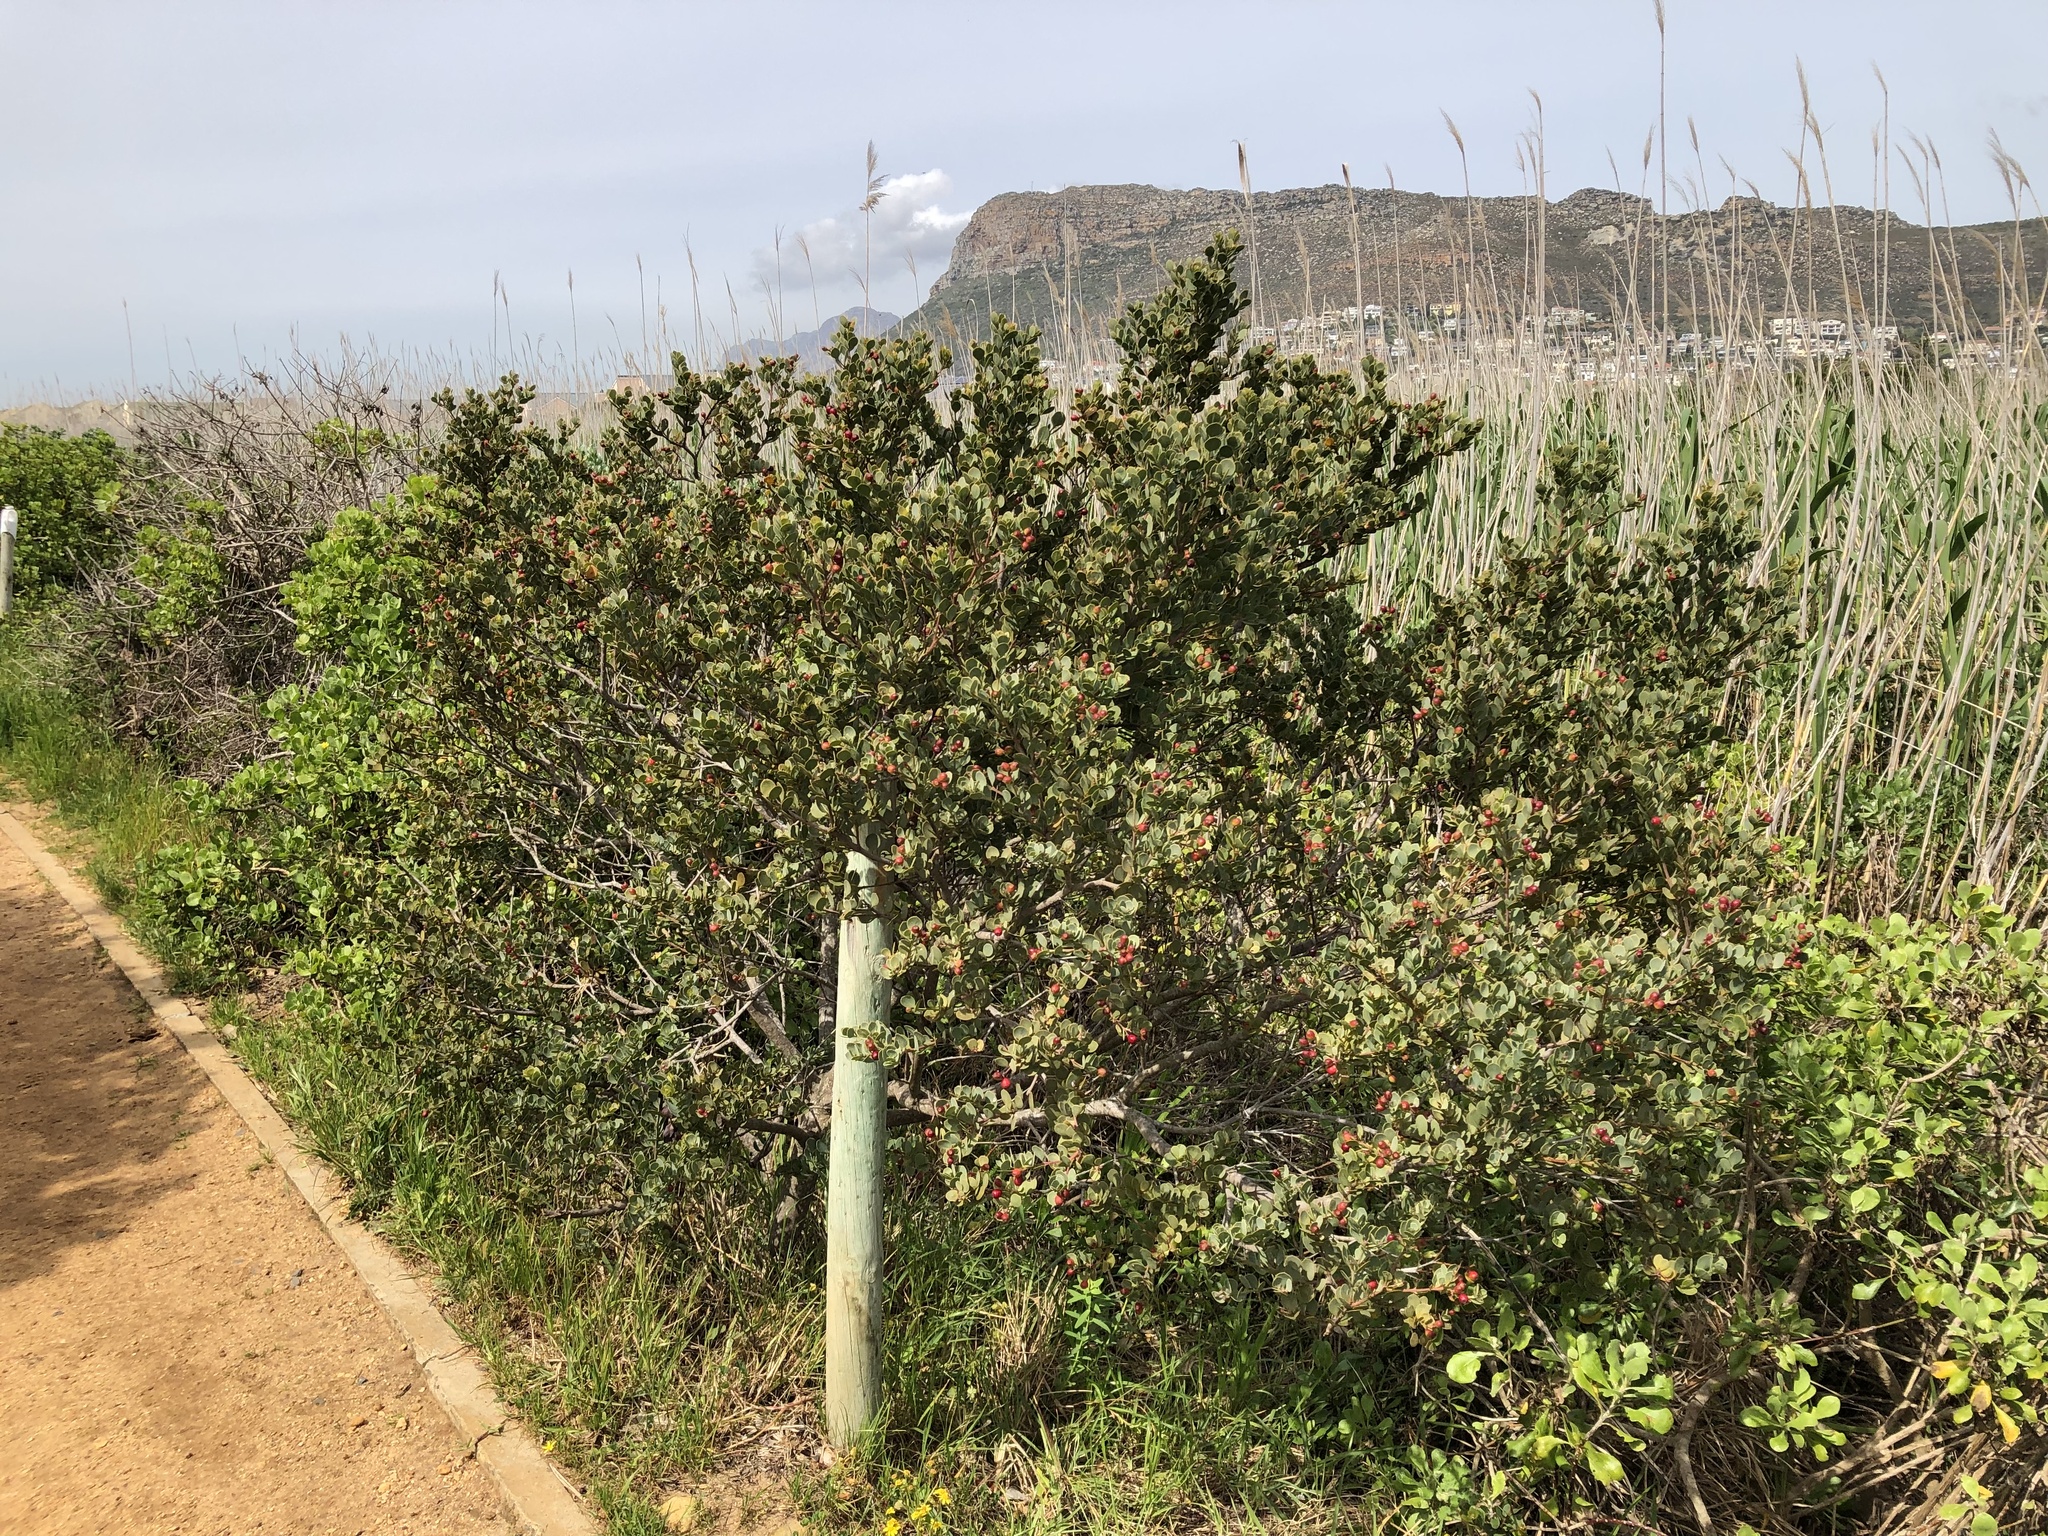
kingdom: Plantae
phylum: Tracheophyta
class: Magnoliopsida
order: Santalales
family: Santalaceae
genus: Osyris
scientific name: Osyris compressa
